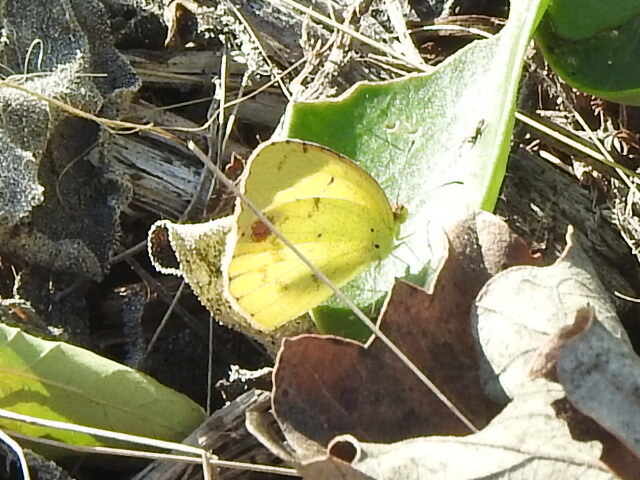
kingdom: Animalia
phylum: Arthropoda
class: Insecta
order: Lepidoptera
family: Pieridae
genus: Pyrisitia
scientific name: Pyrisitia lisa
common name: Little yellow
